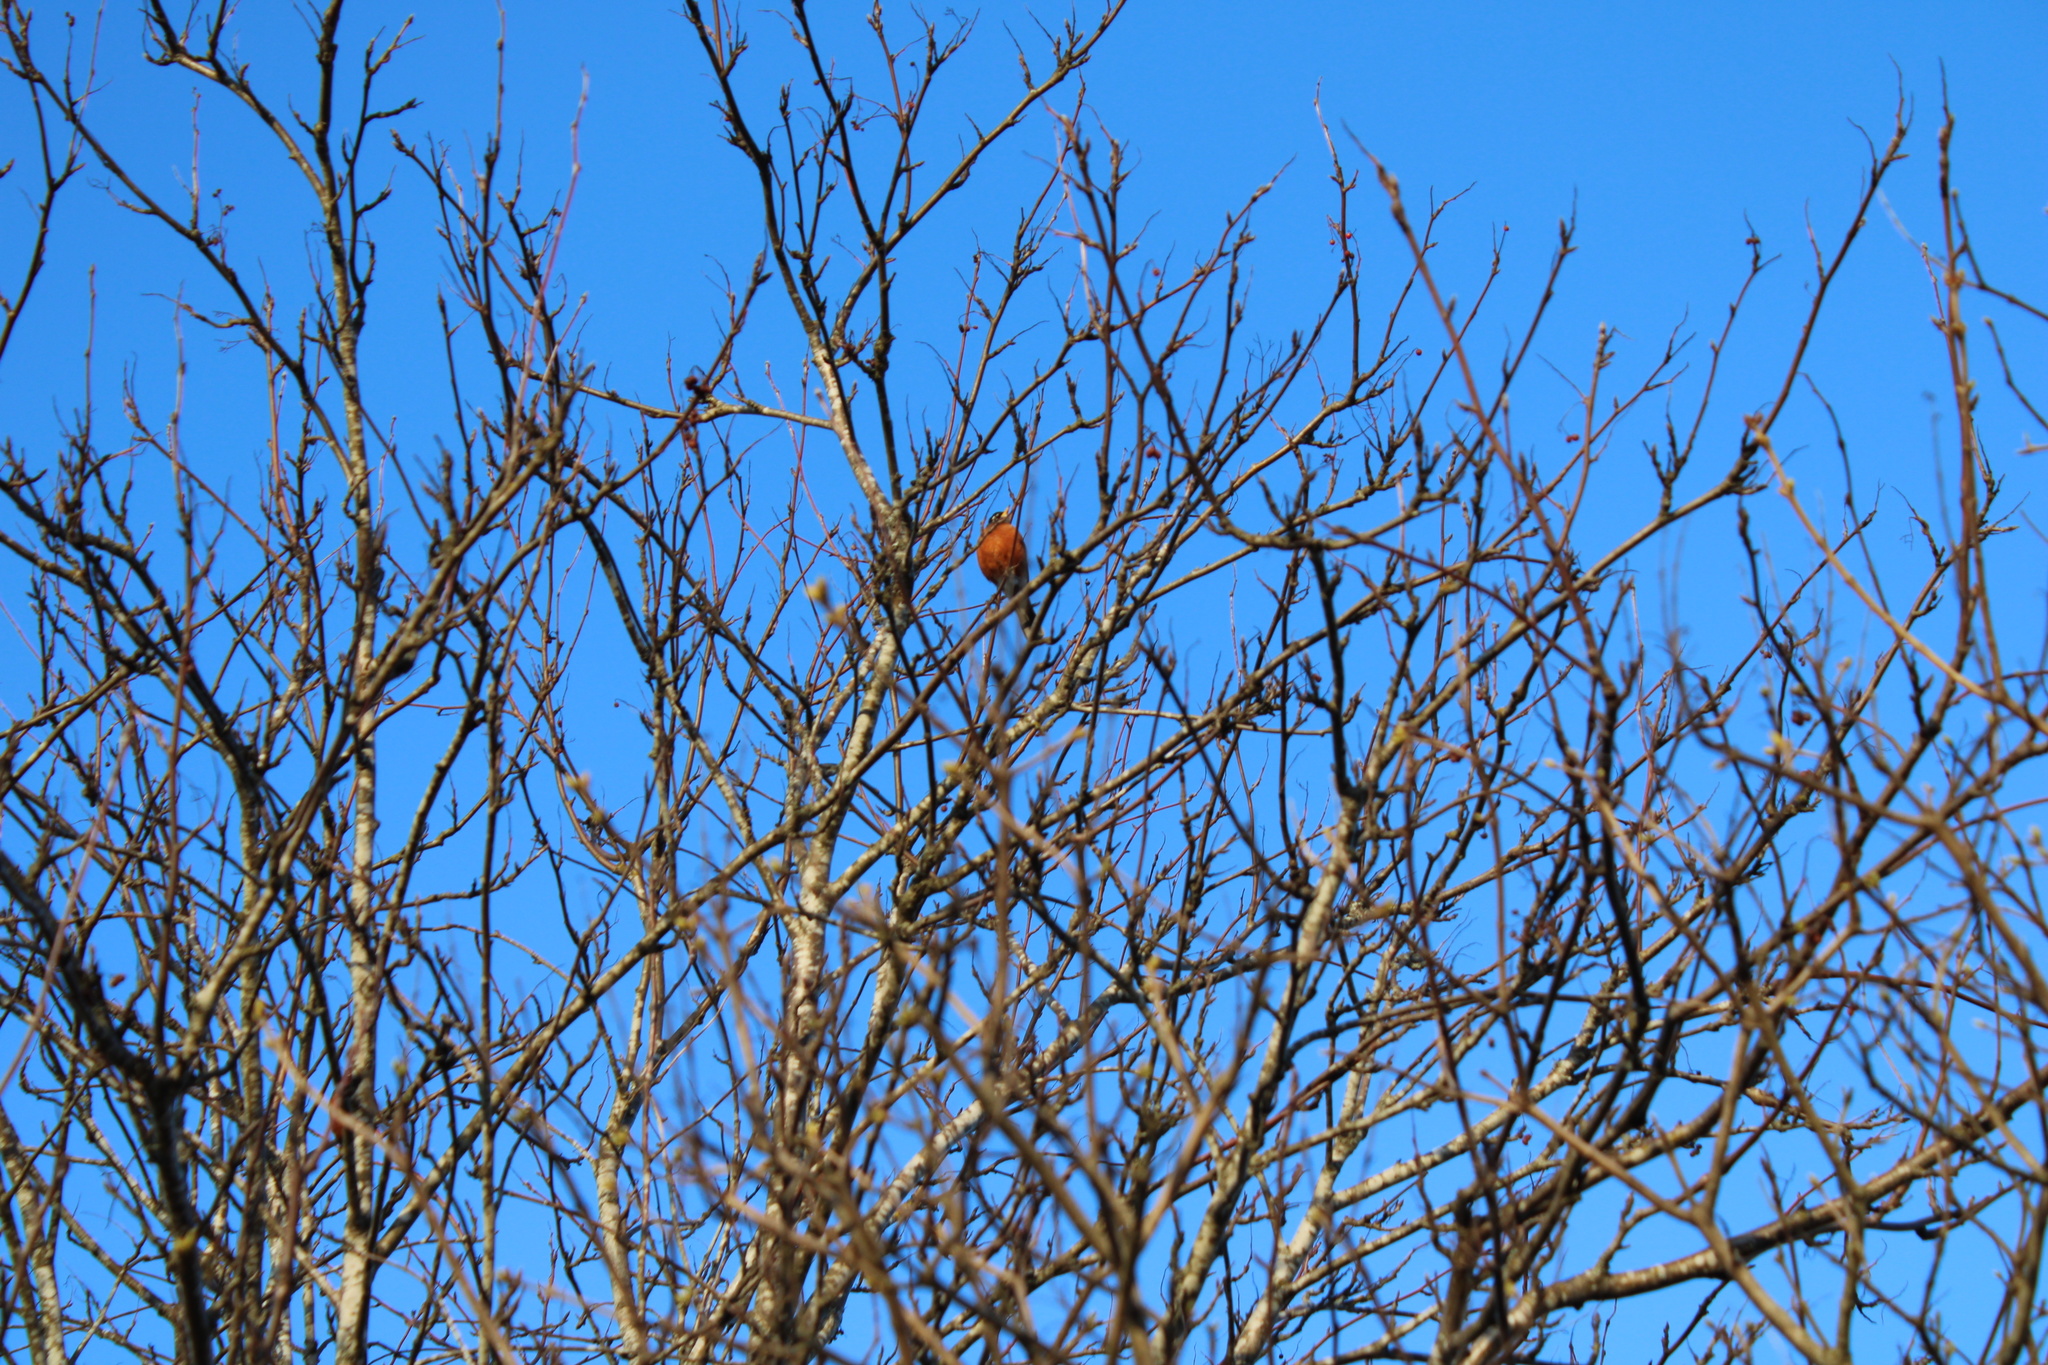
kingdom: Animalia
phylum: Chordata
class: Aves
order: Passeriformes
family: Turdidae
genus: Turdus
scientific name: Turdus migratorius
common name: American robin
